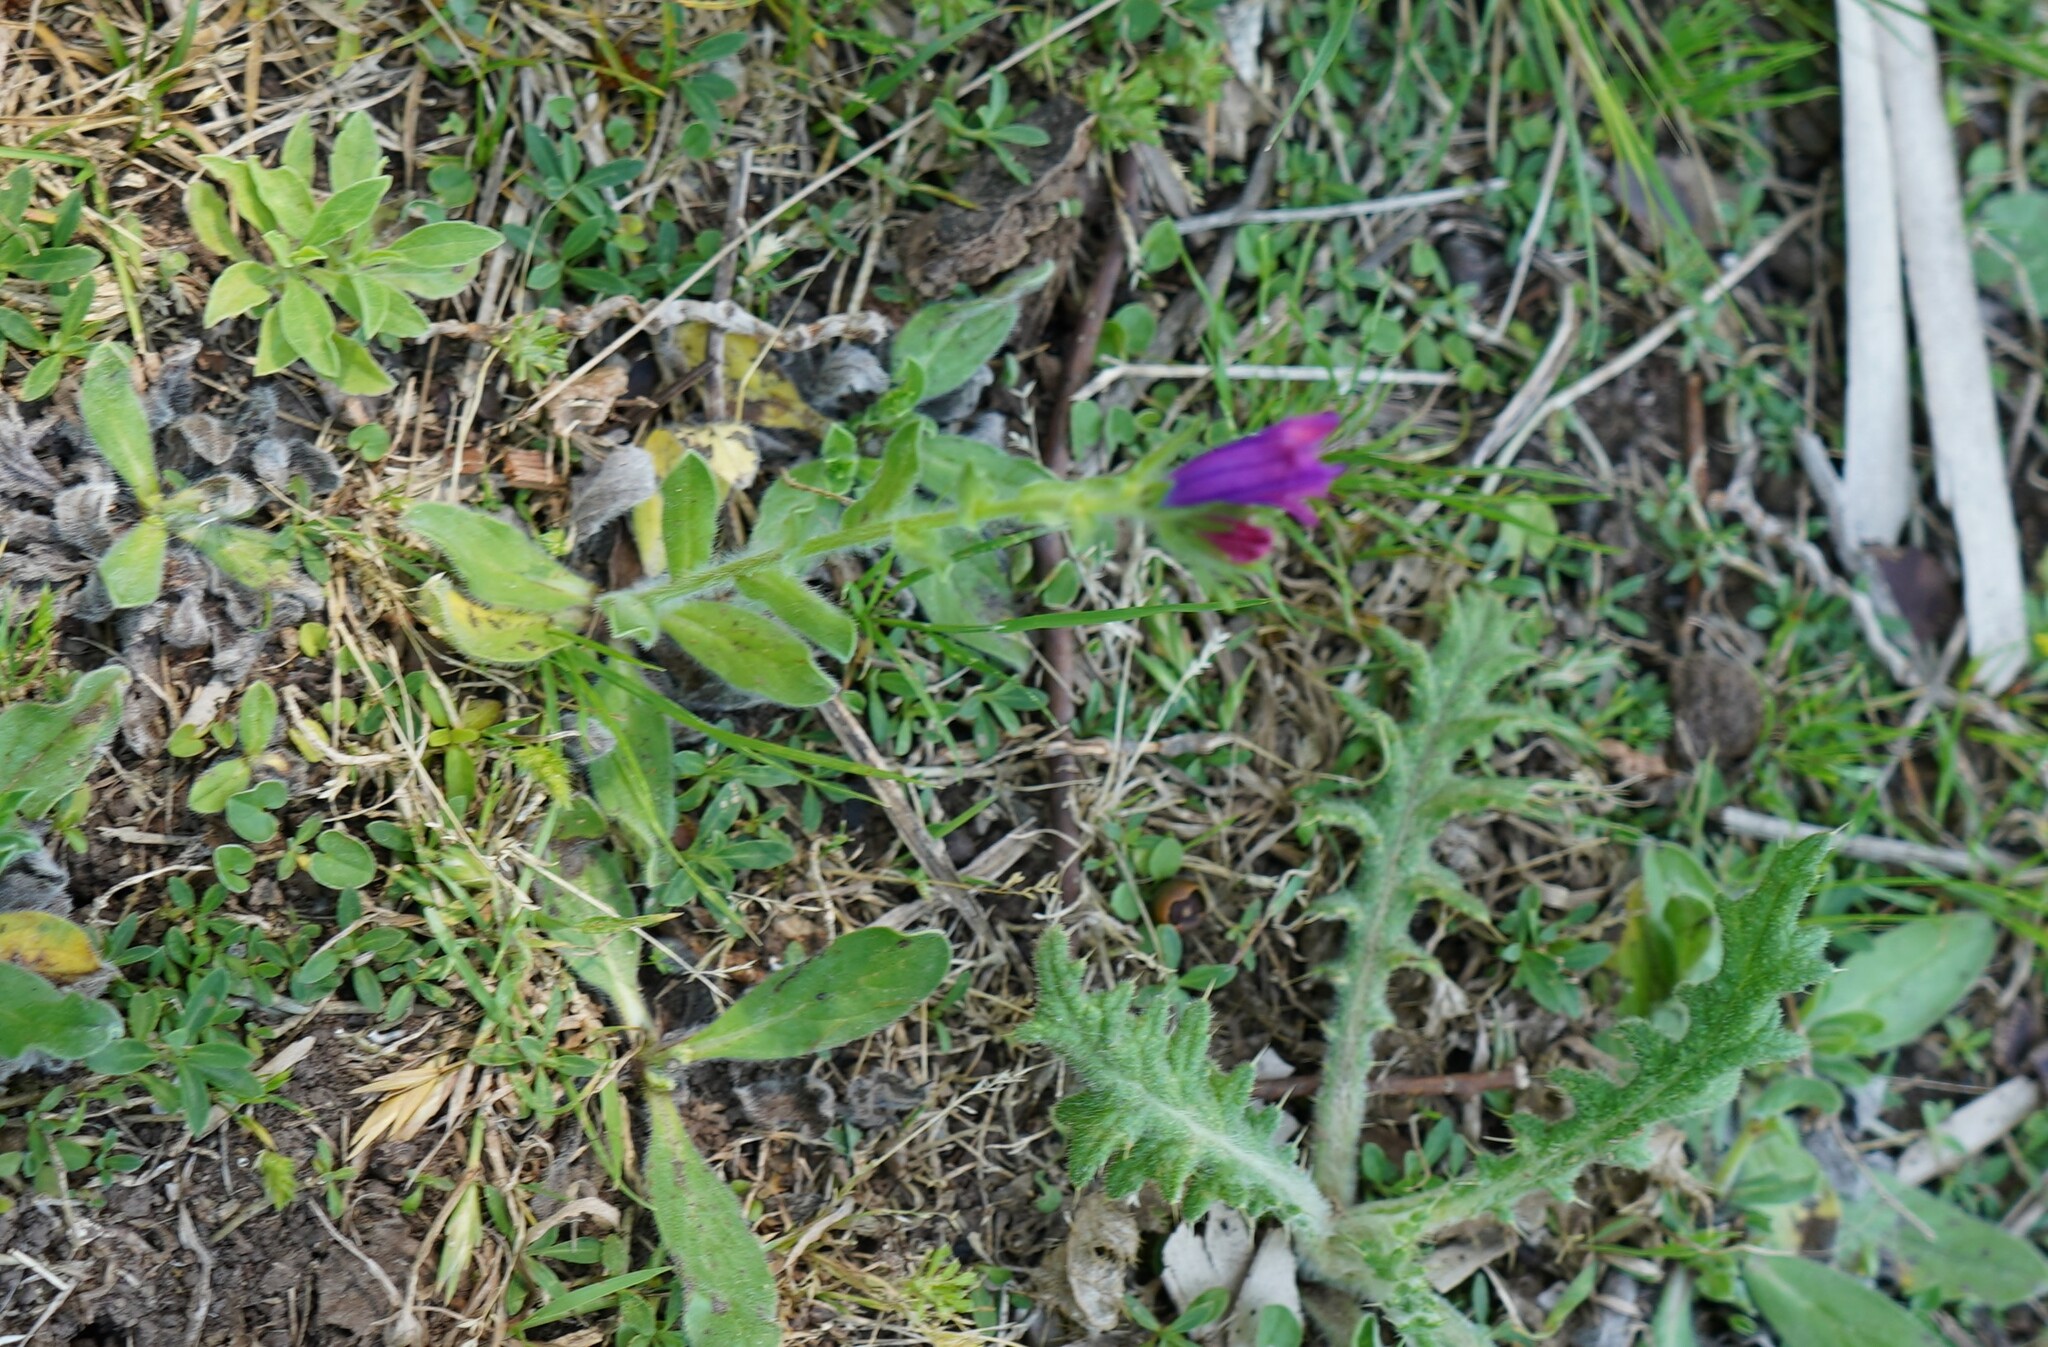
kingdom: Plantae
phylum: Tracheophyta
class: Magnoliopsida
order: Boraginales
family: Boraginaceae
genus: Echium
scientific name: Echium plantagineum
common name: Purple viper's-bugloss
